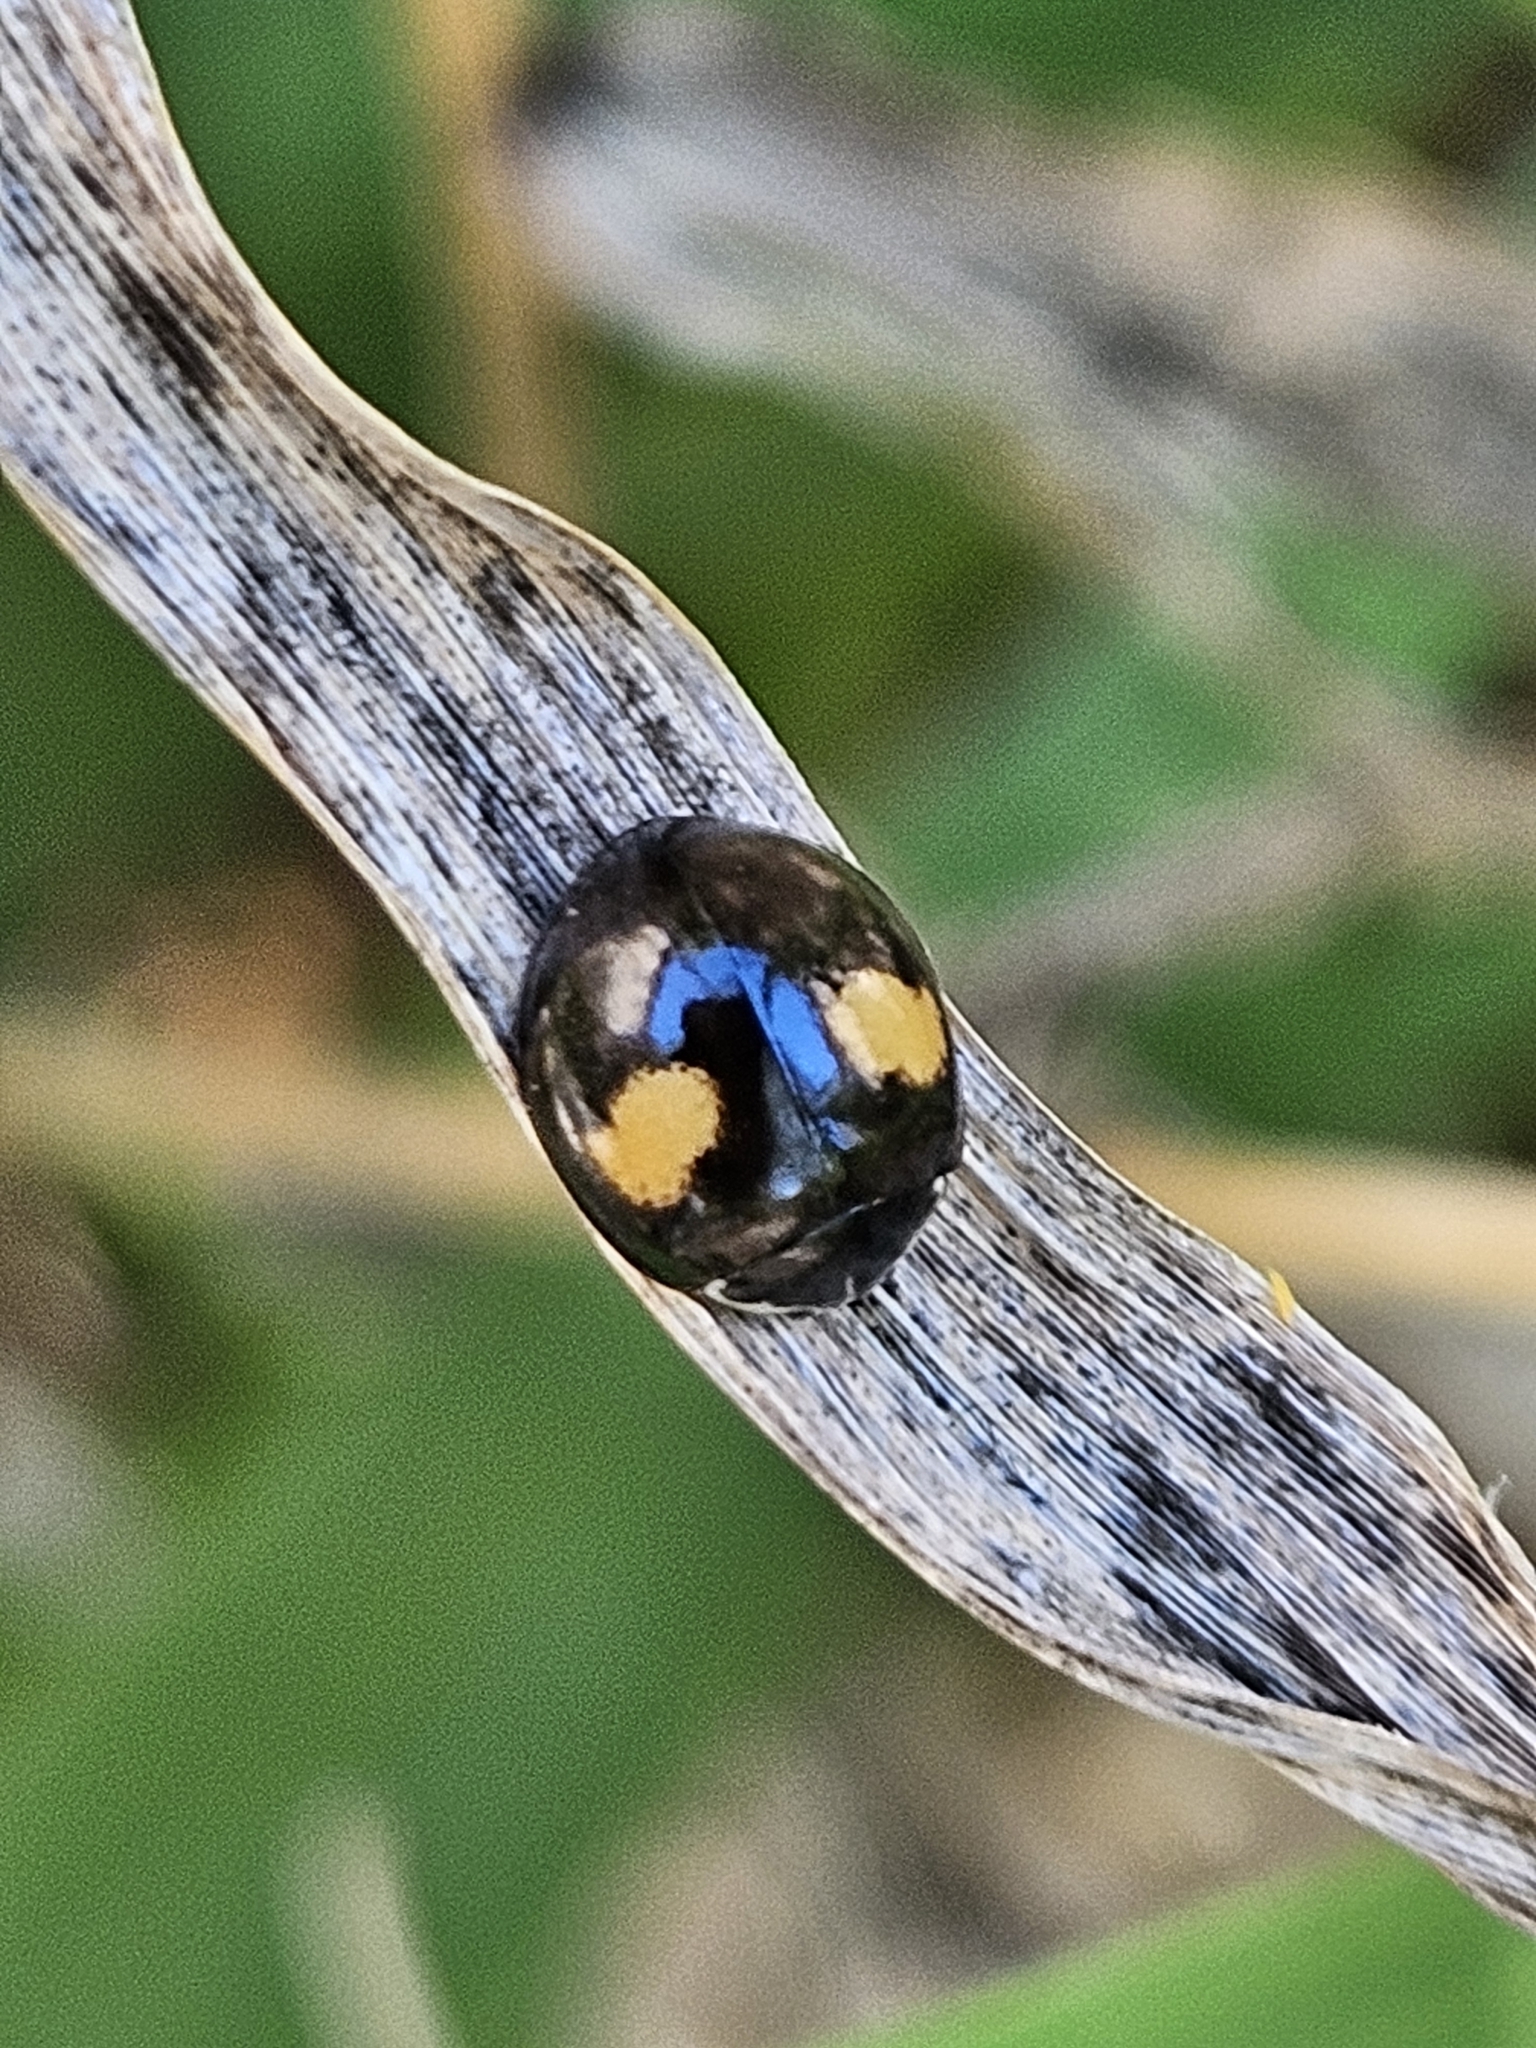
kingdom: Animalia
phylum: Arthropoda
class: Insecta
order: Coleoptera
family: Coccinellidae
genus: Olla
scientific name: Olla v-nigrum
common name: Ashy gray lady beetle
